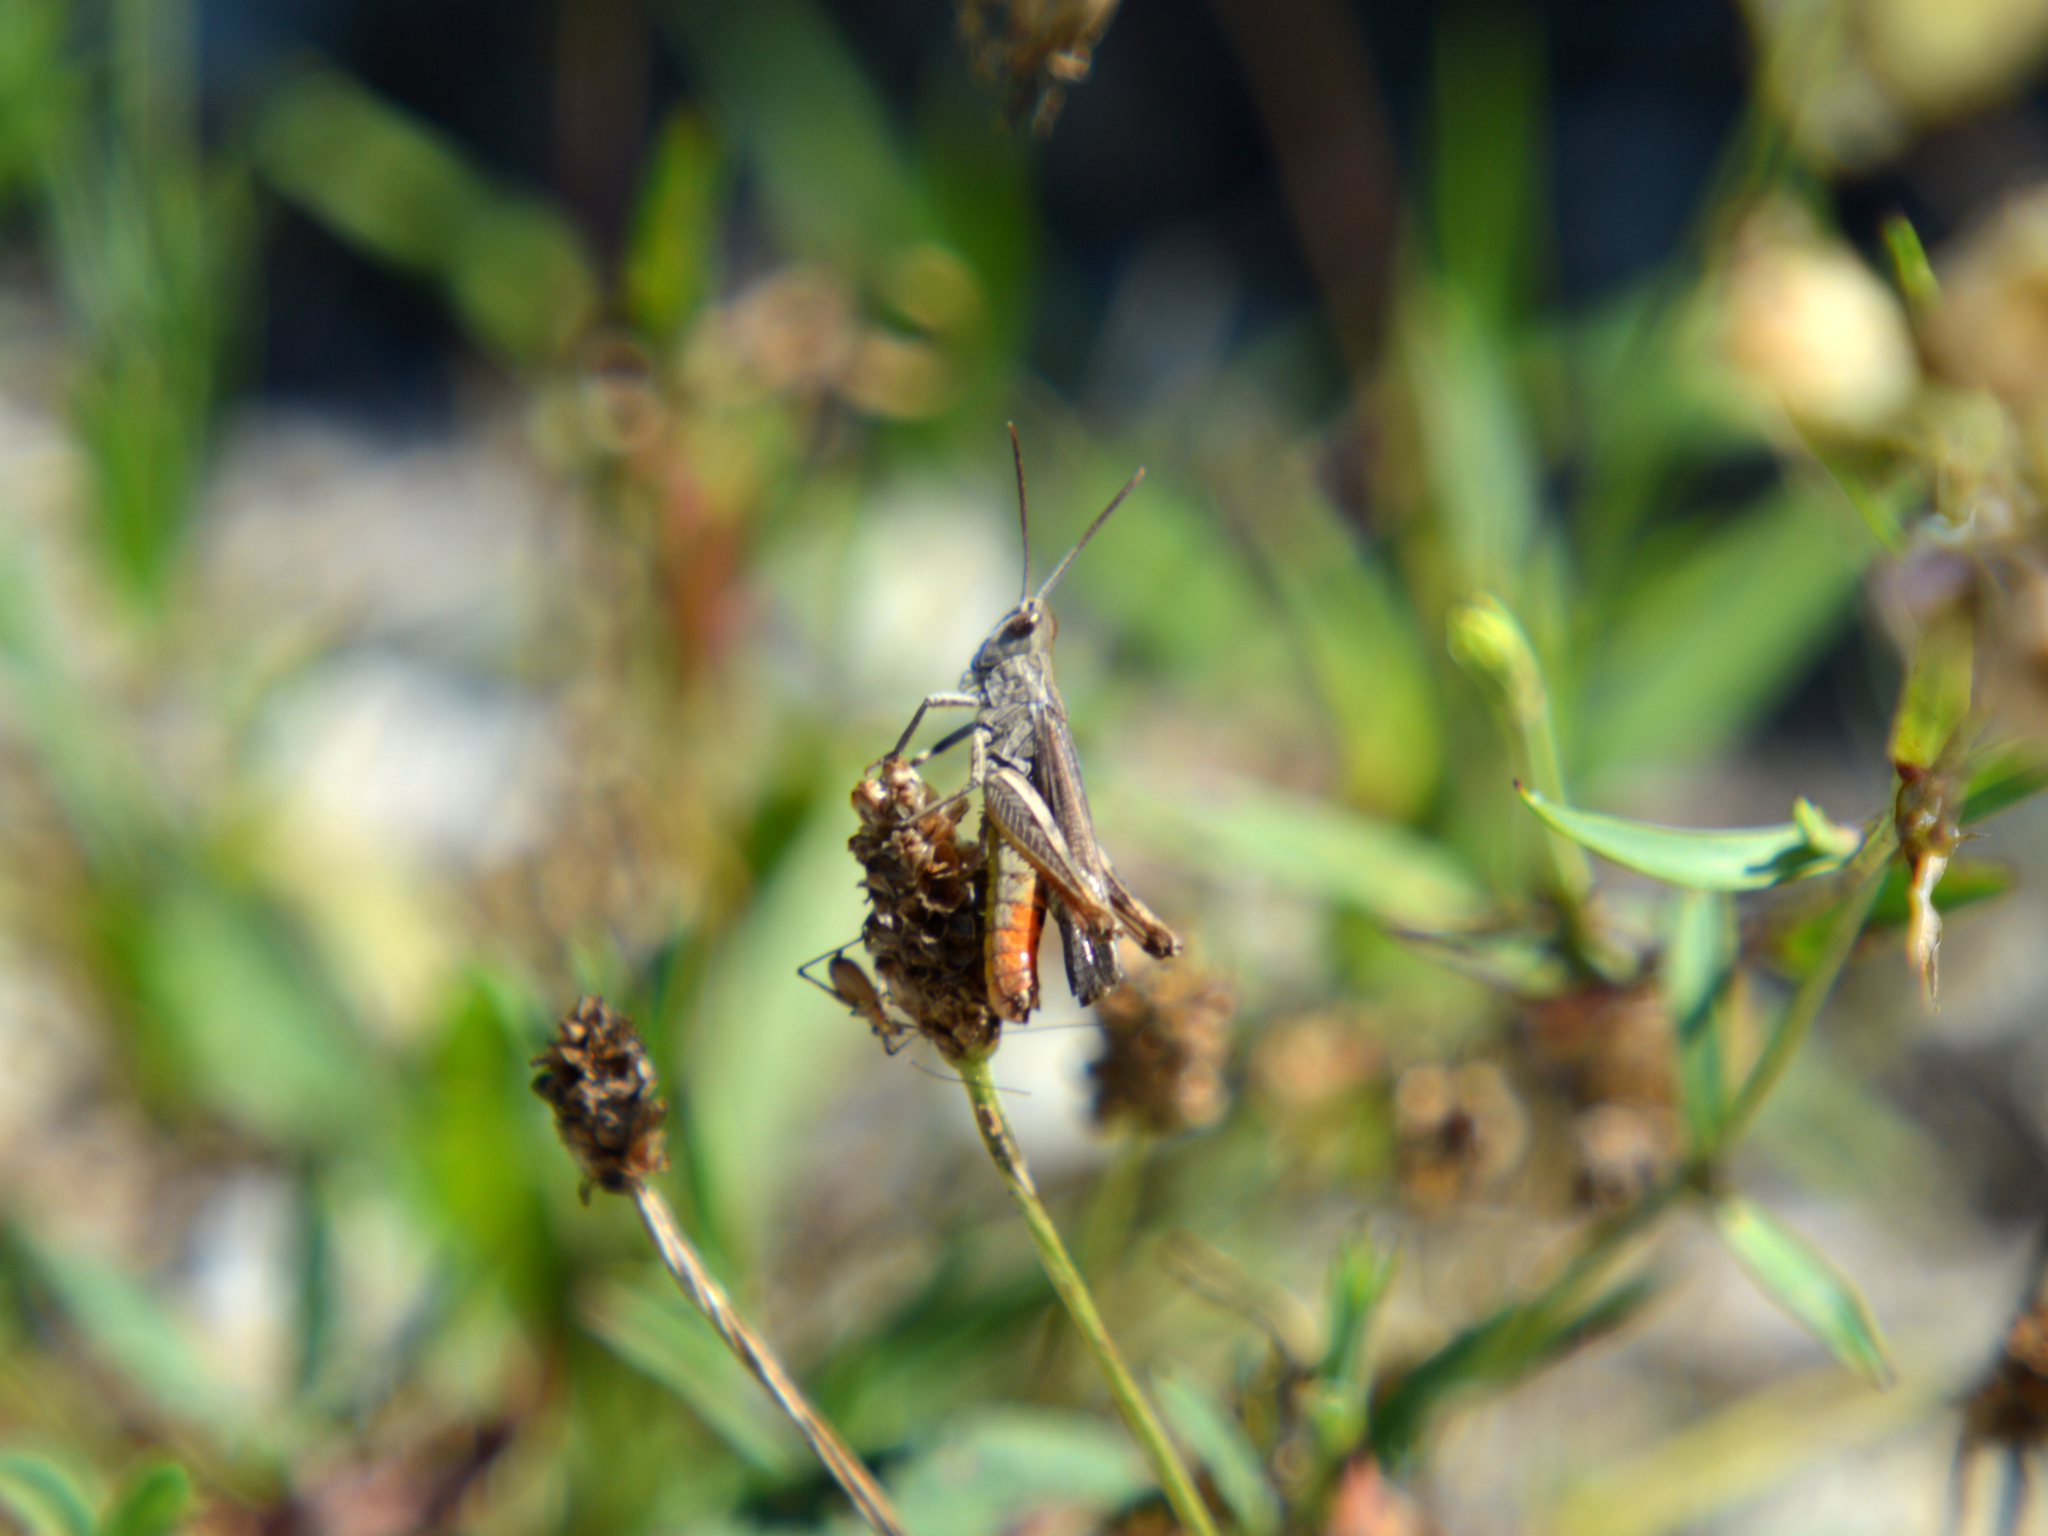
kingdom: Animalia
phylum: Arthropoda
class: Insecta
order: Orthoptera
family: Acrididae
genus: Glyptobothrus
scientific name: Glyptobothrus
